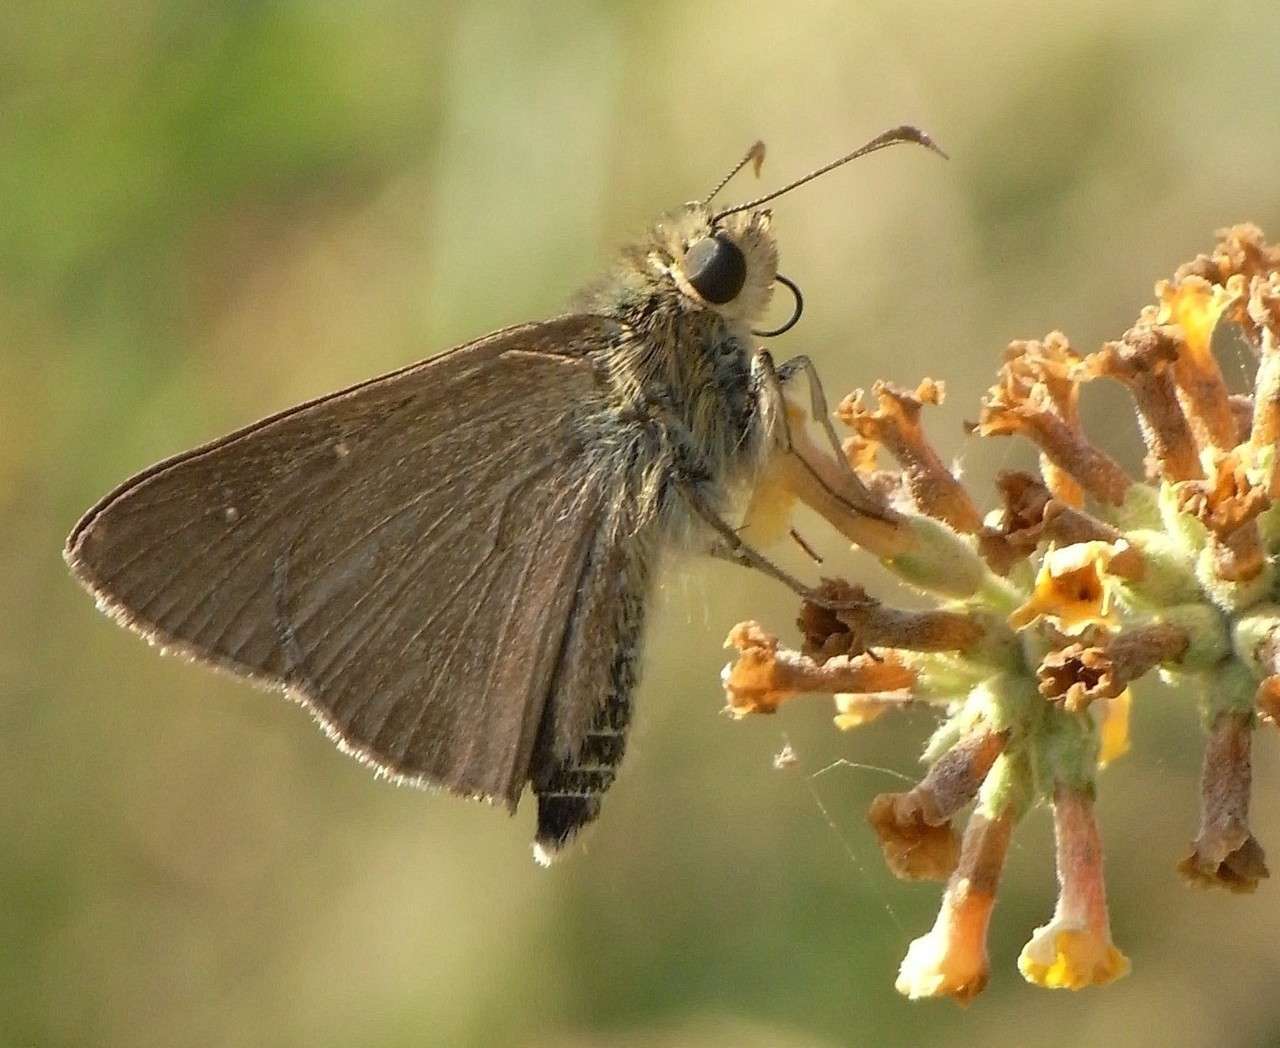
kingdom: Animalia
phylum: Arthropoda
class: Insecta
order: Lepidoptera
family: Hesperiidae
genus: Toxidia
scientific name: Toxidia
